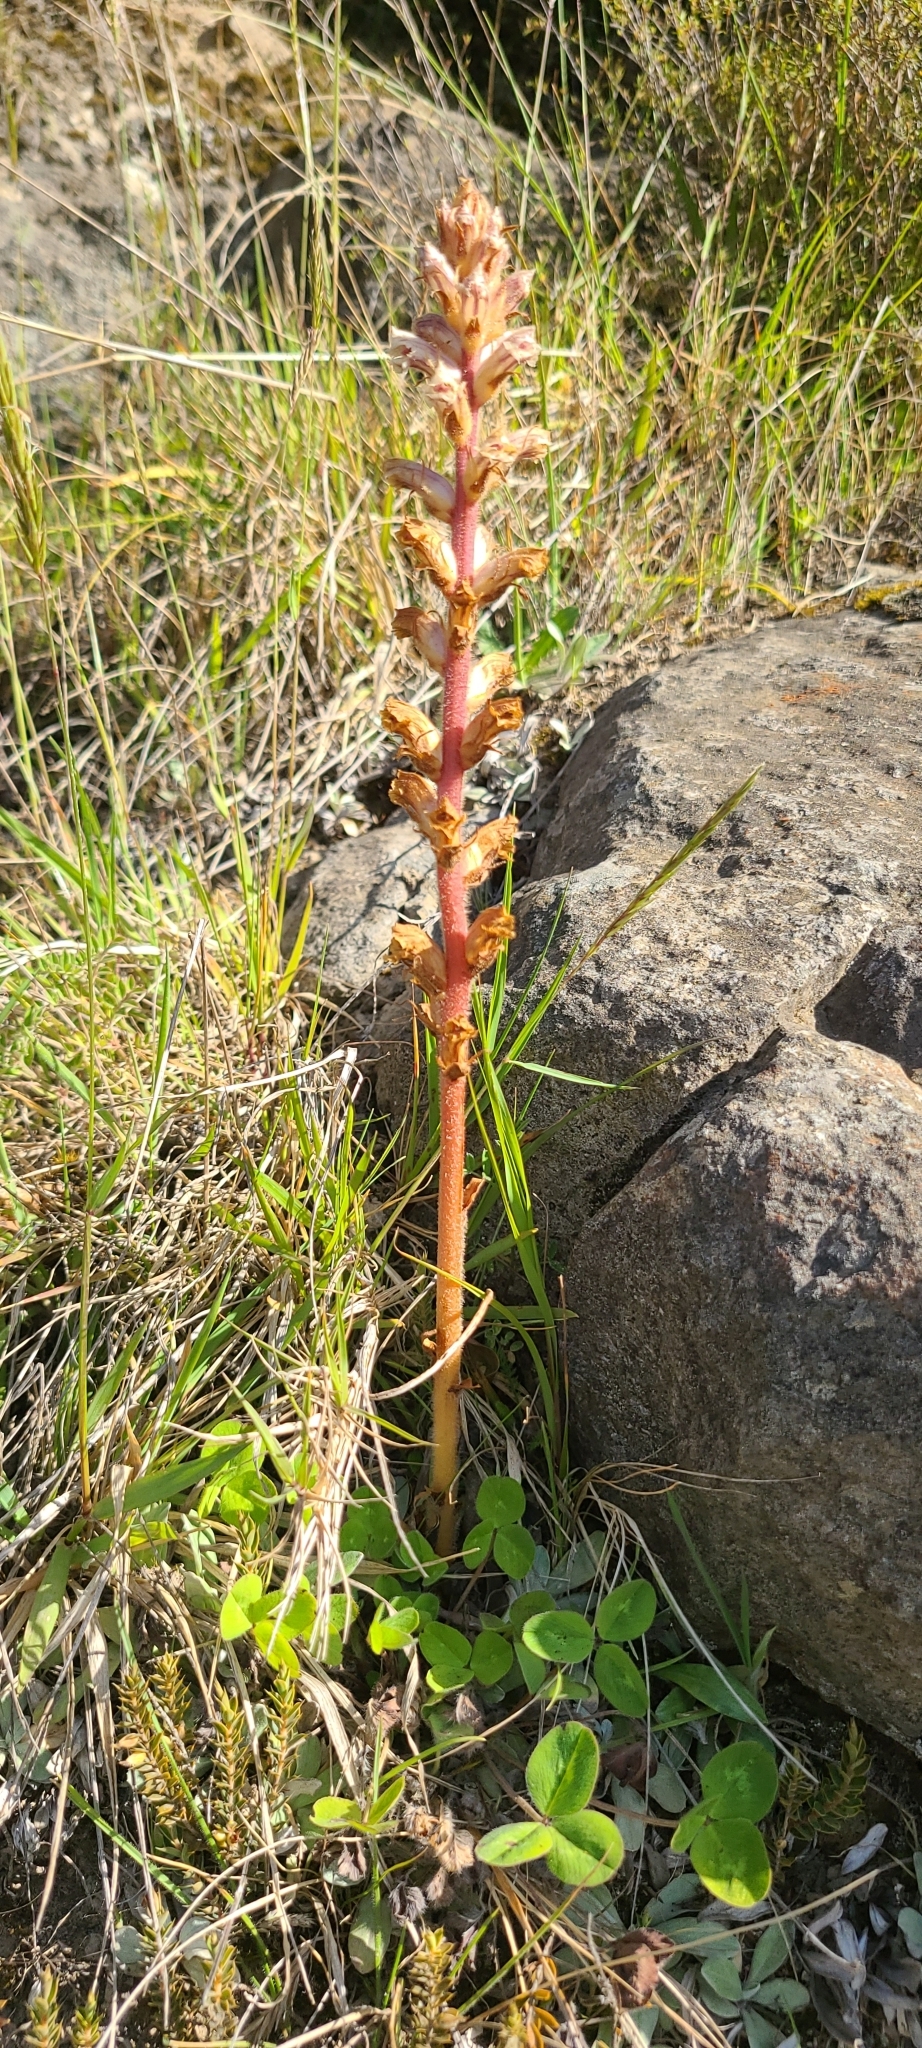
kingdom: Plantae
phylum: Tracheophyta
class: Magnoliopsida
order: Lamiales
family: Orobanchaceae
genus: Orobanche
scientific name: Orobanche minor
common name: Common broomrape
